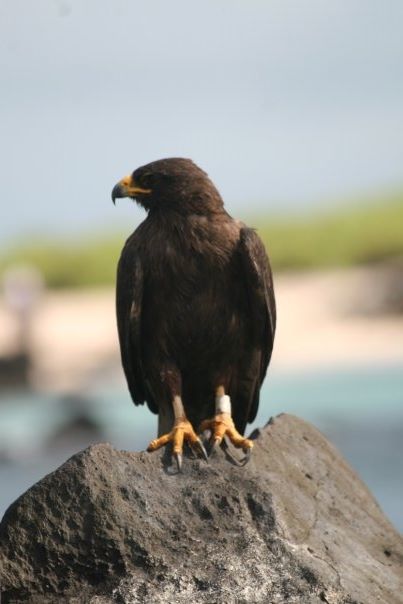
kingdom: Animalia
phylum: Chordata
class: Aves
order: Accipitriformes
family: Accipitridae
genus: Buteo
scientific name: Buteo galapagoensis
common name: Galapagos hawk
